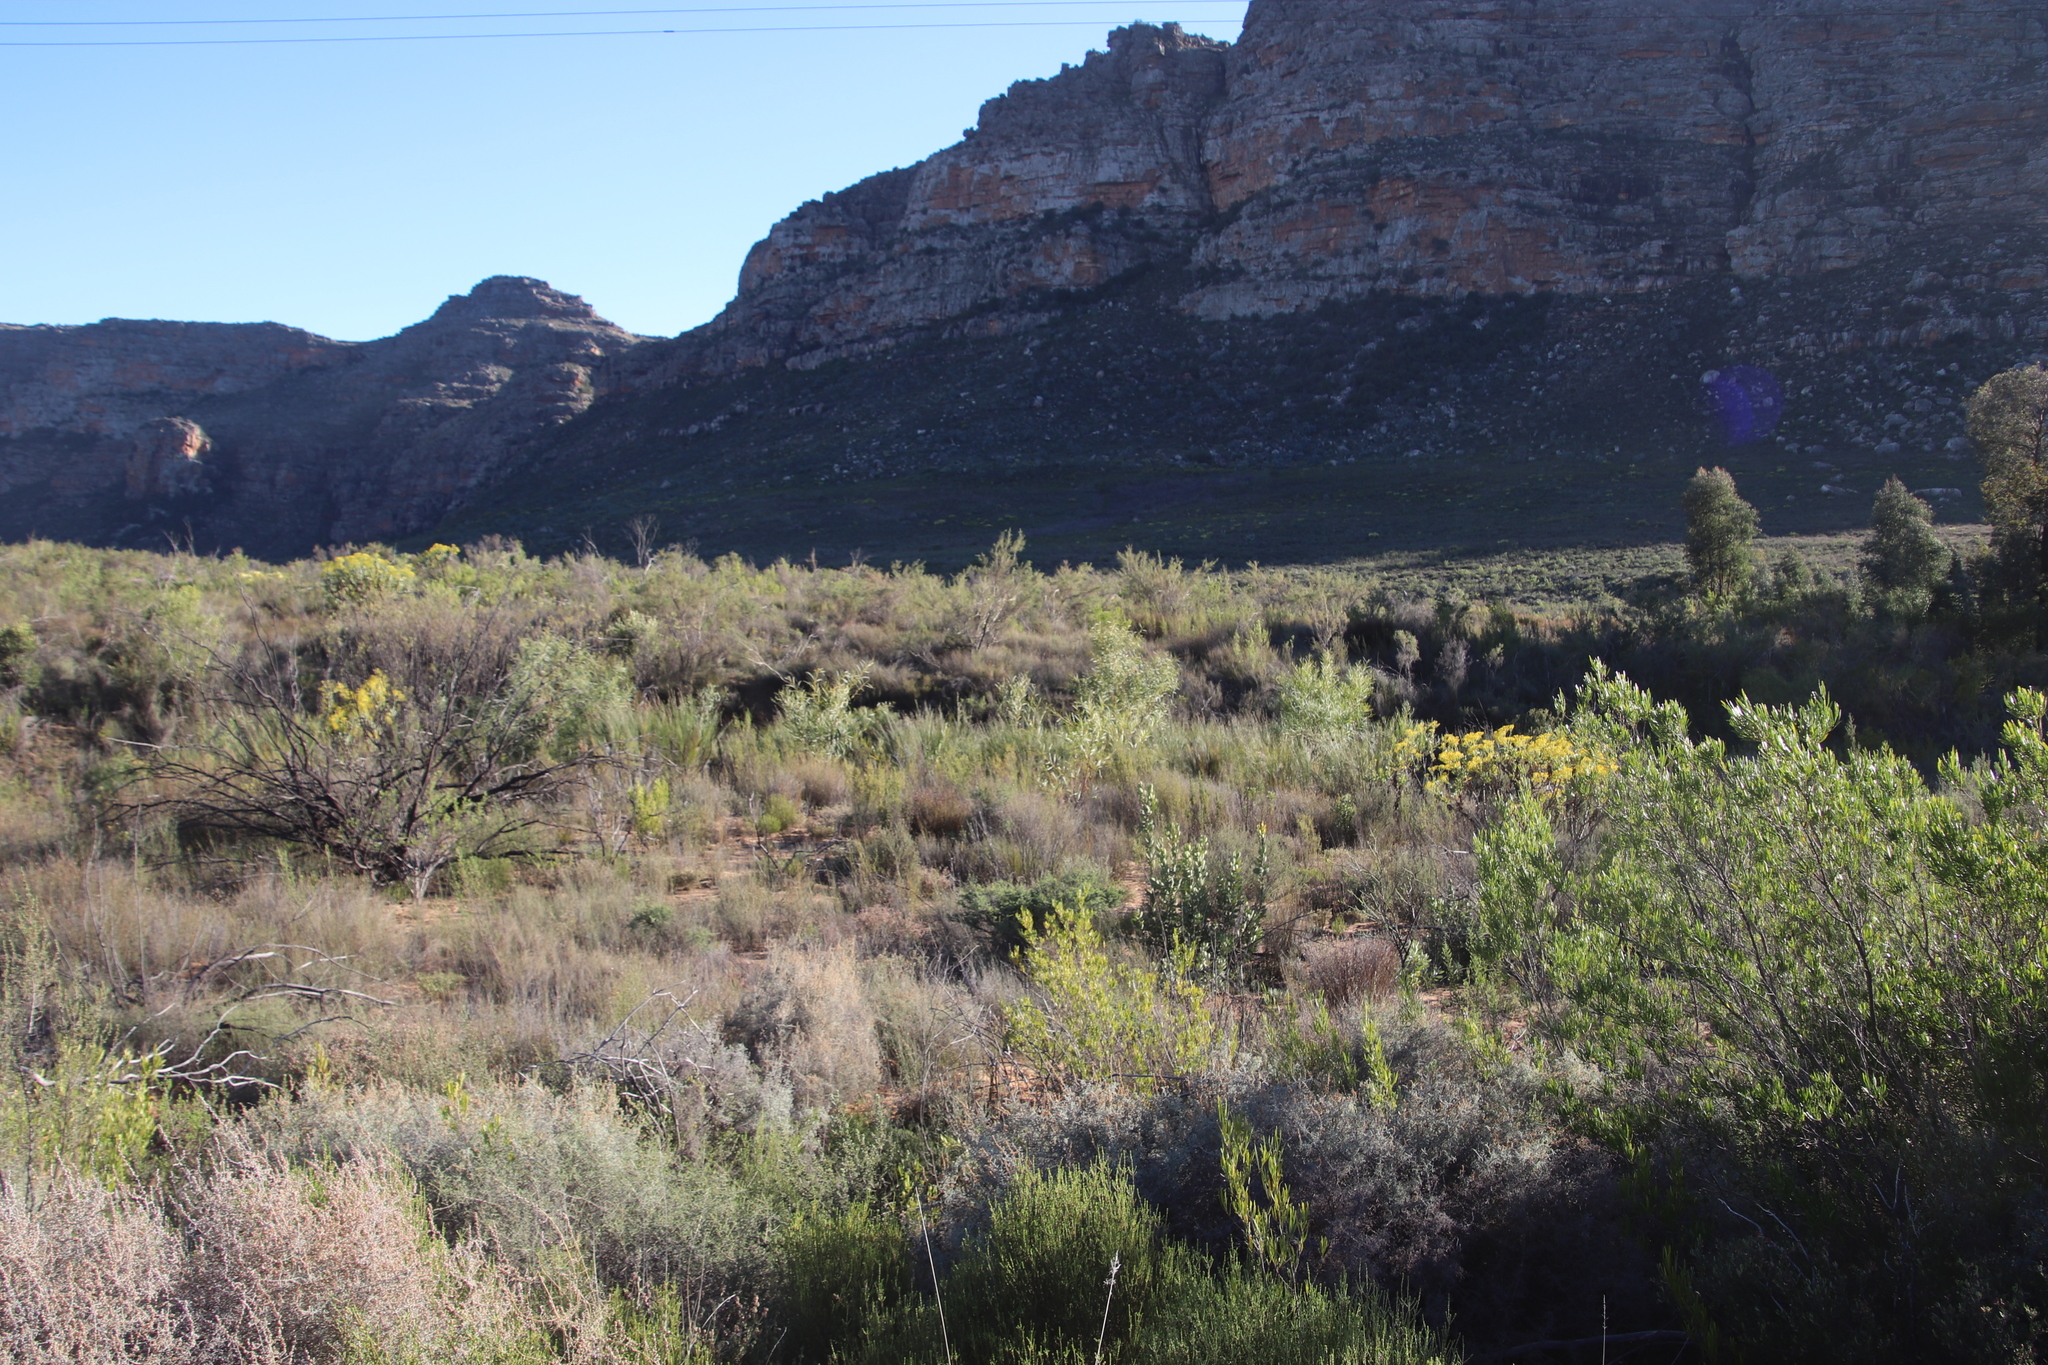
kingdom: Plantae
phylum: Tracheophyta
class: Magnoliopsida
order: Proteales
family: Proteaceae
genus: Protea
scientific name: Protea glabra
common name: Chestnut sugarbush
